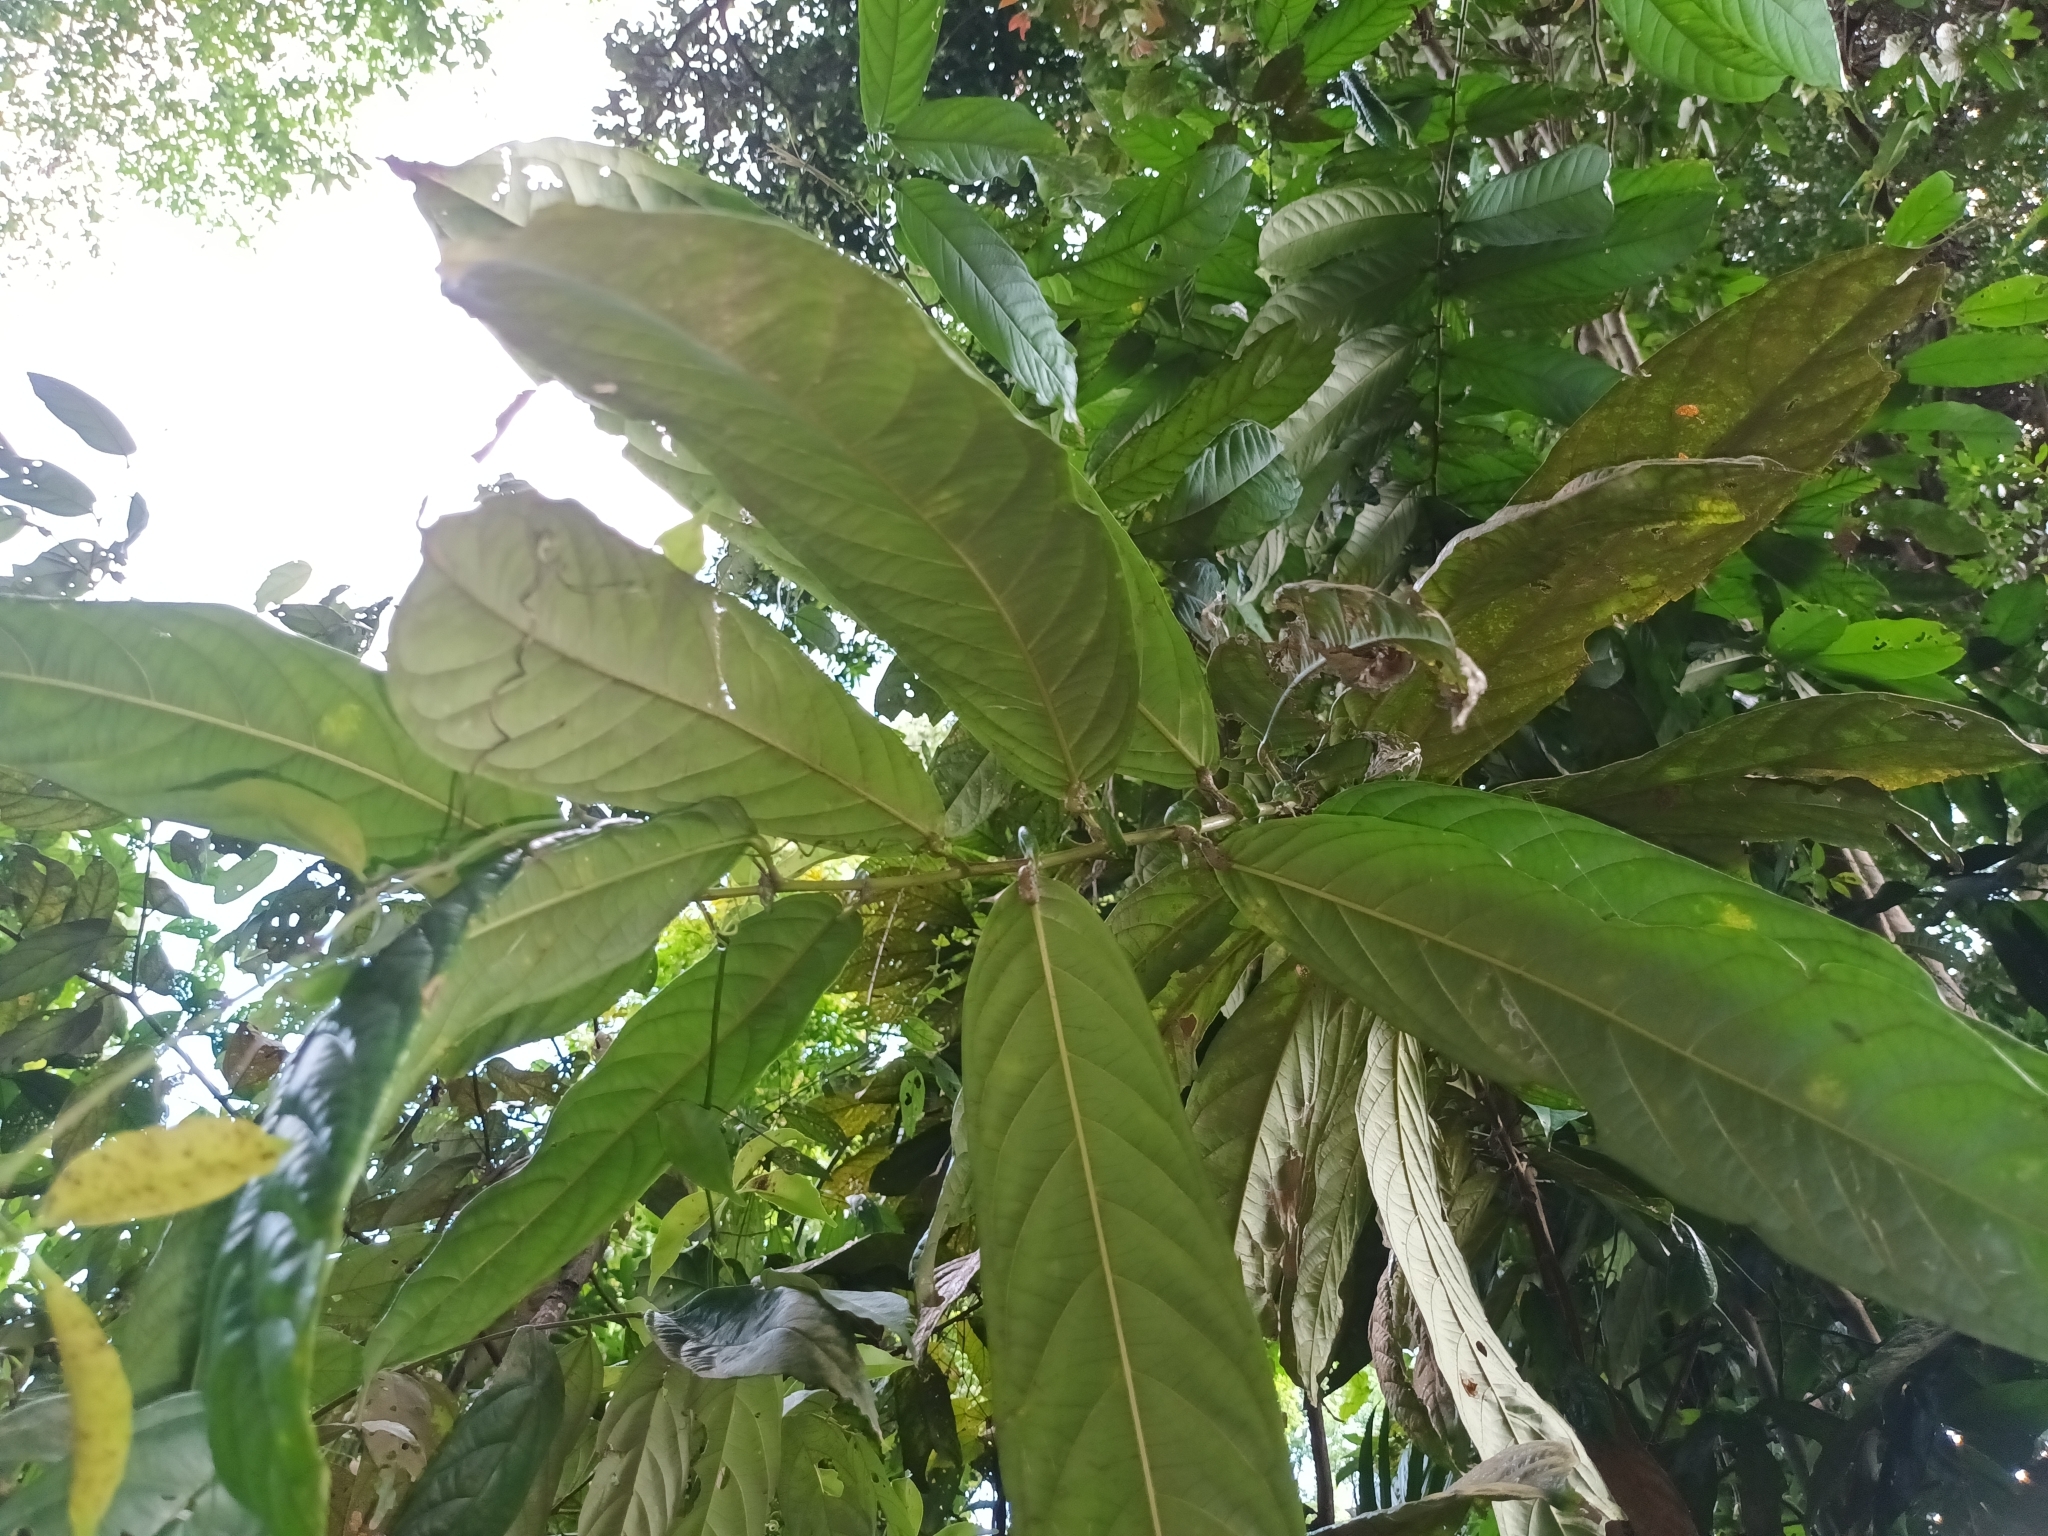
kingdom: Plantae
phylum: Tracheophyta
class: Magnoliopsida
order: Malpighiales
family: Phyllanthaceae
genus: Aporosa
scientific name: Aporosa benthamiana
